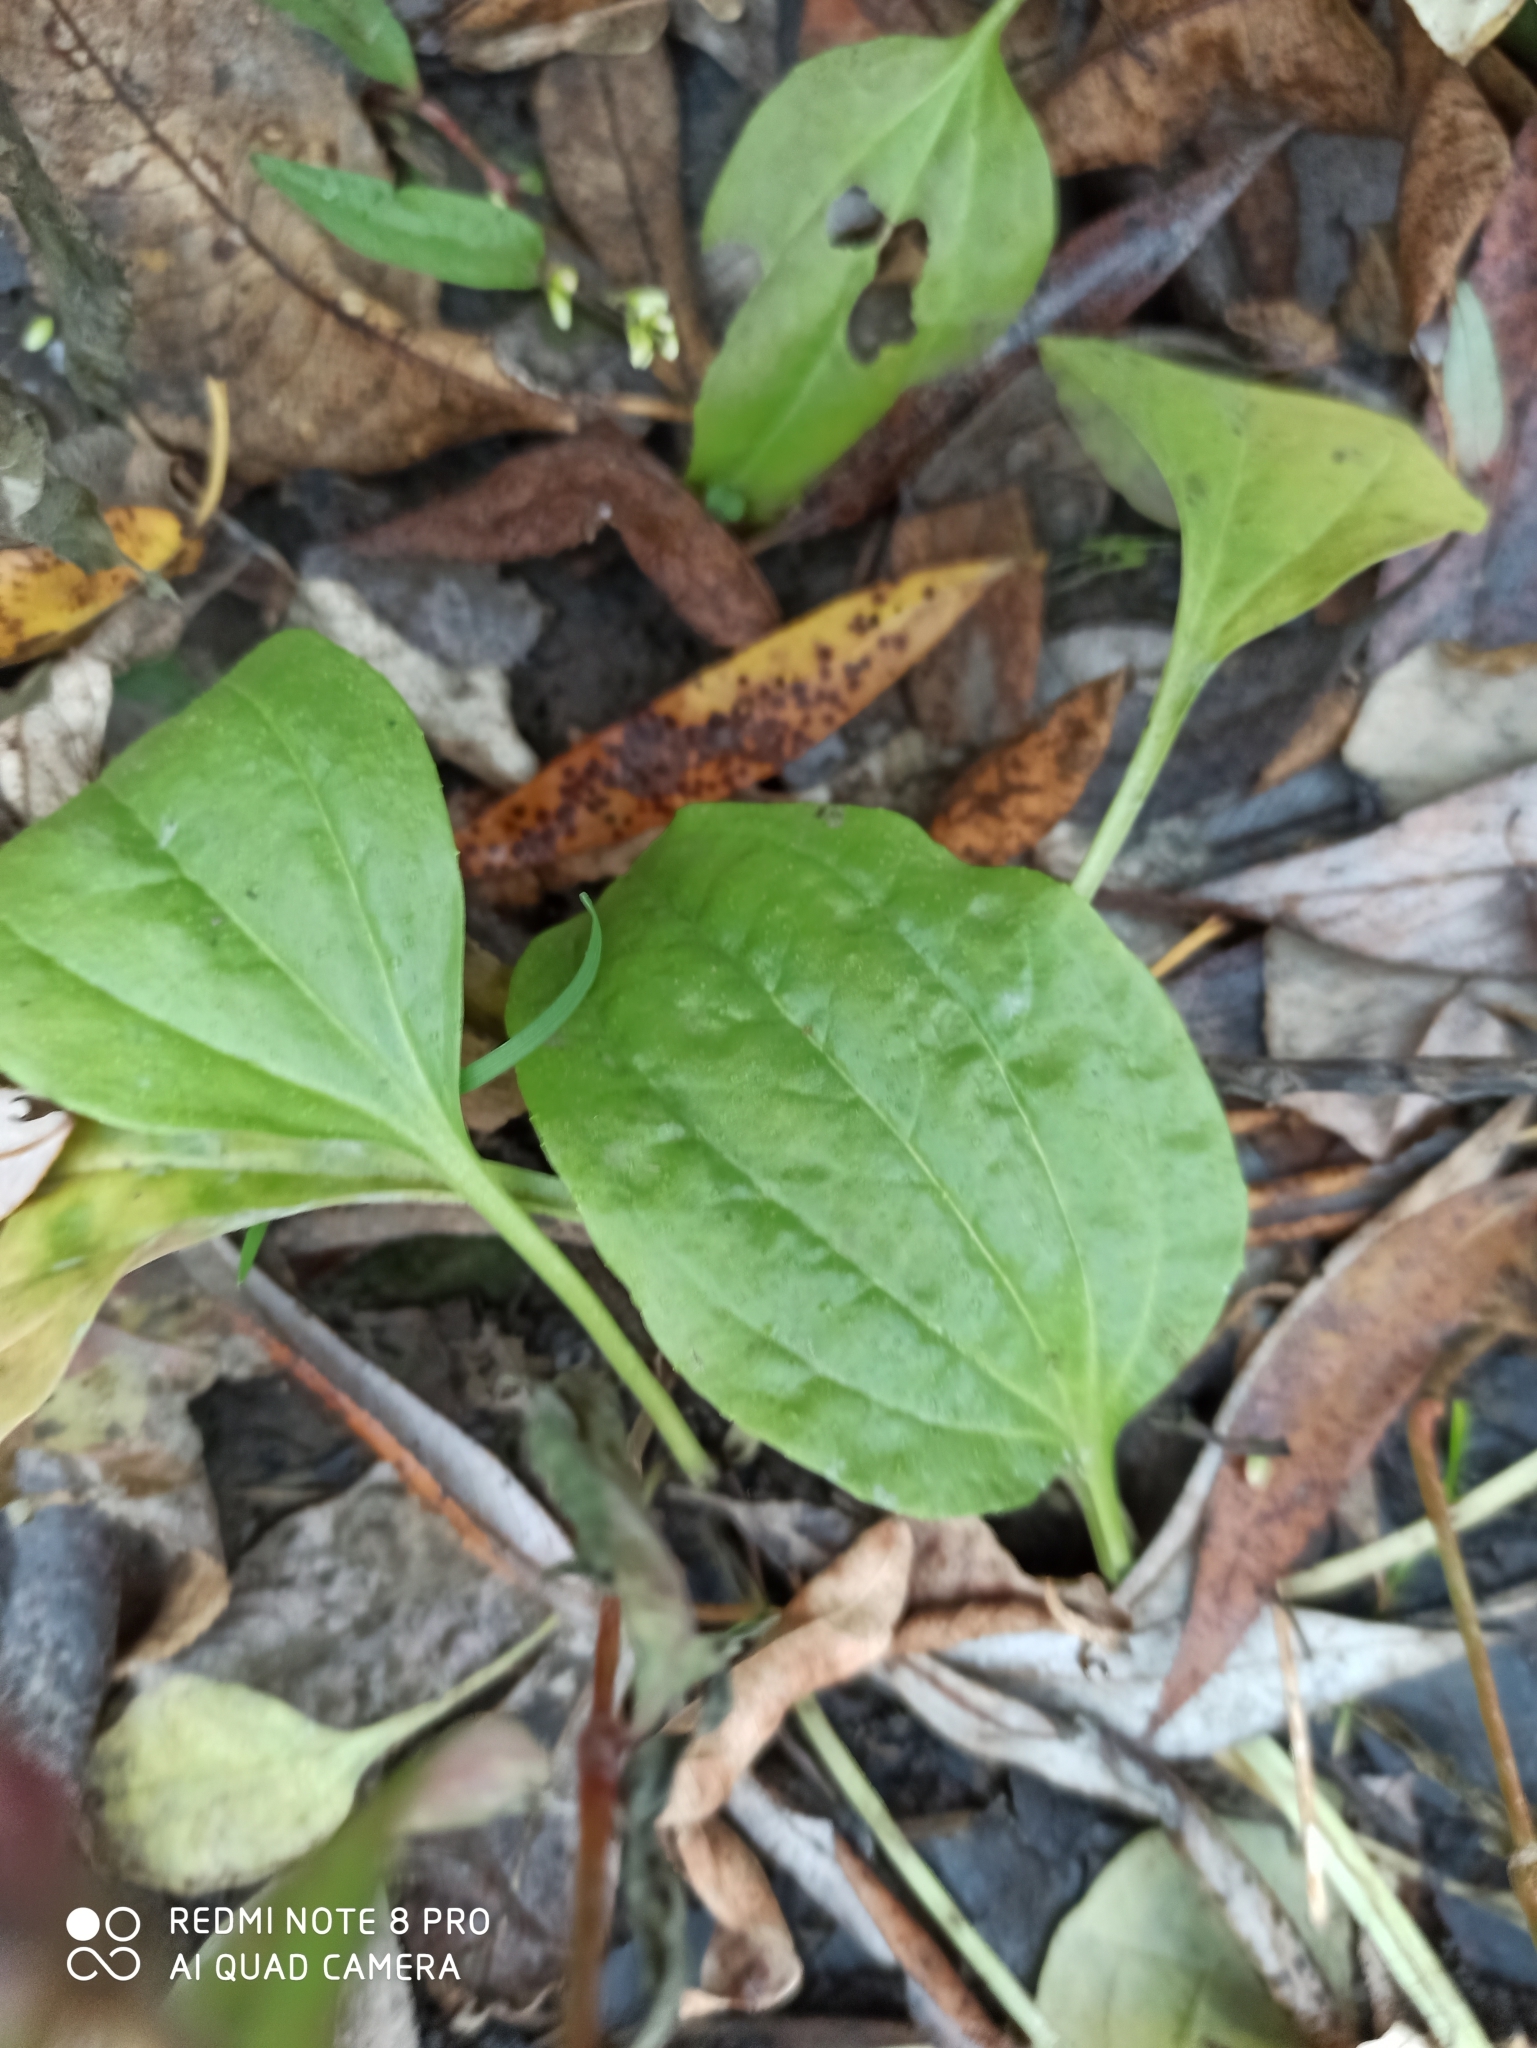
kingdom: Plantae
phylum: Tracheophyta
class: Magnoliopsida
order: Lamiales
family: Plantaginaceae
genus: Plantago
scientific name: Plantago major
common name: Common plantain
